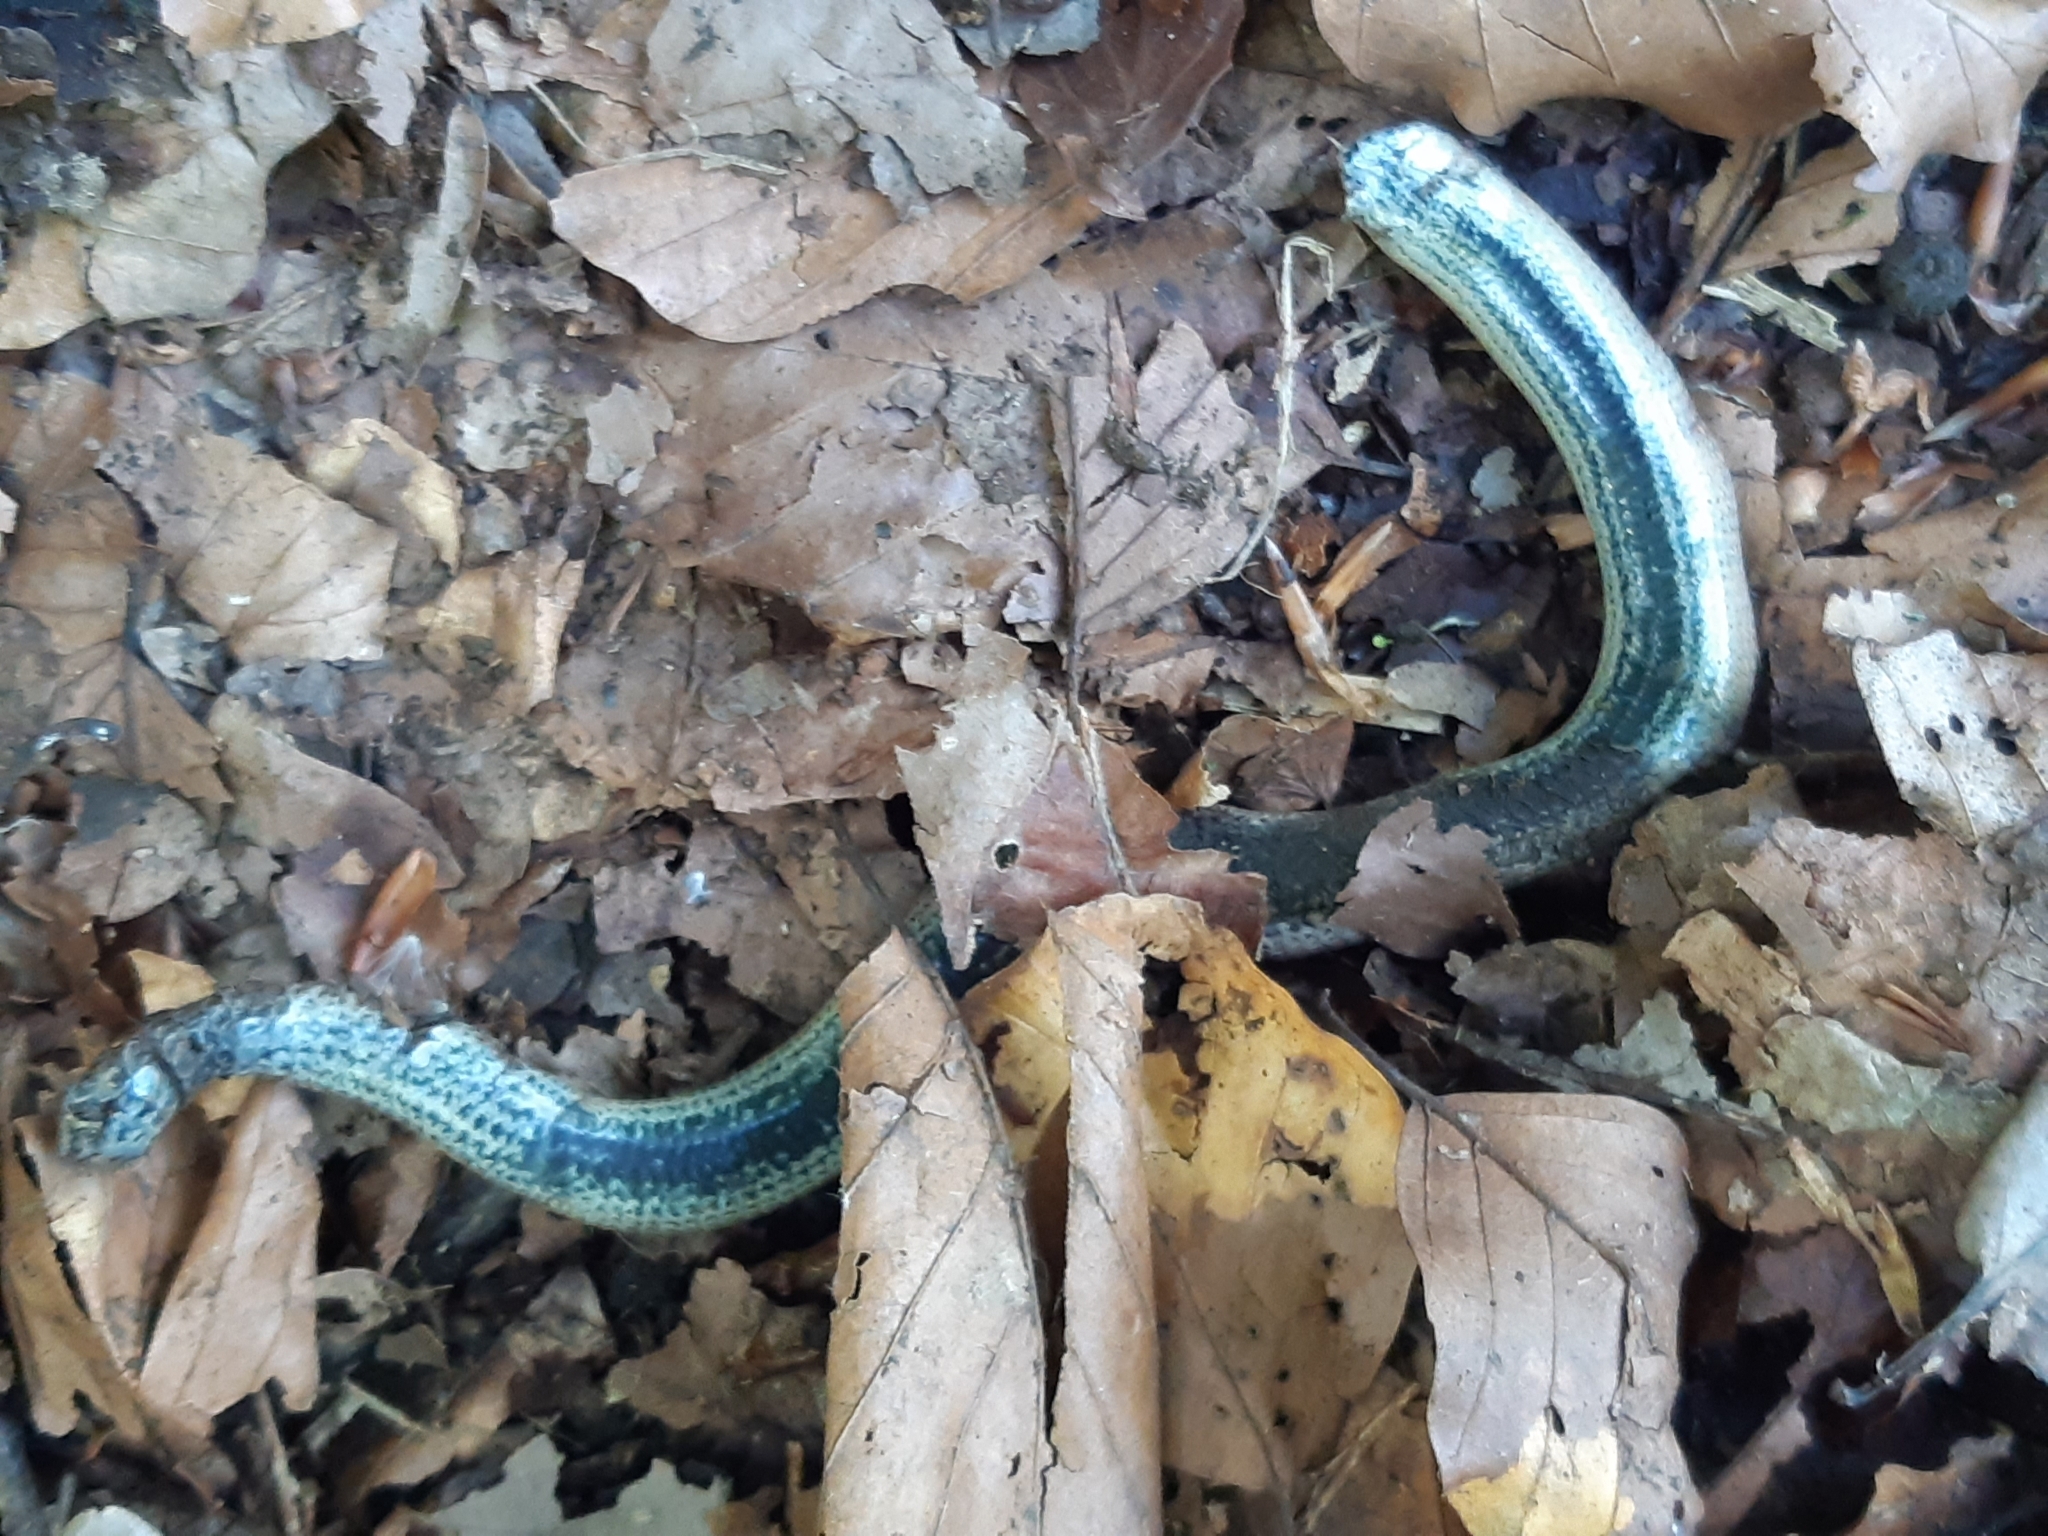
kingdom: Animalia
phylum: Chordata
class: Squamata
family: Anguidae
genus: Anguis
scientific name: Anguis fragilis
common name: Slow worm
